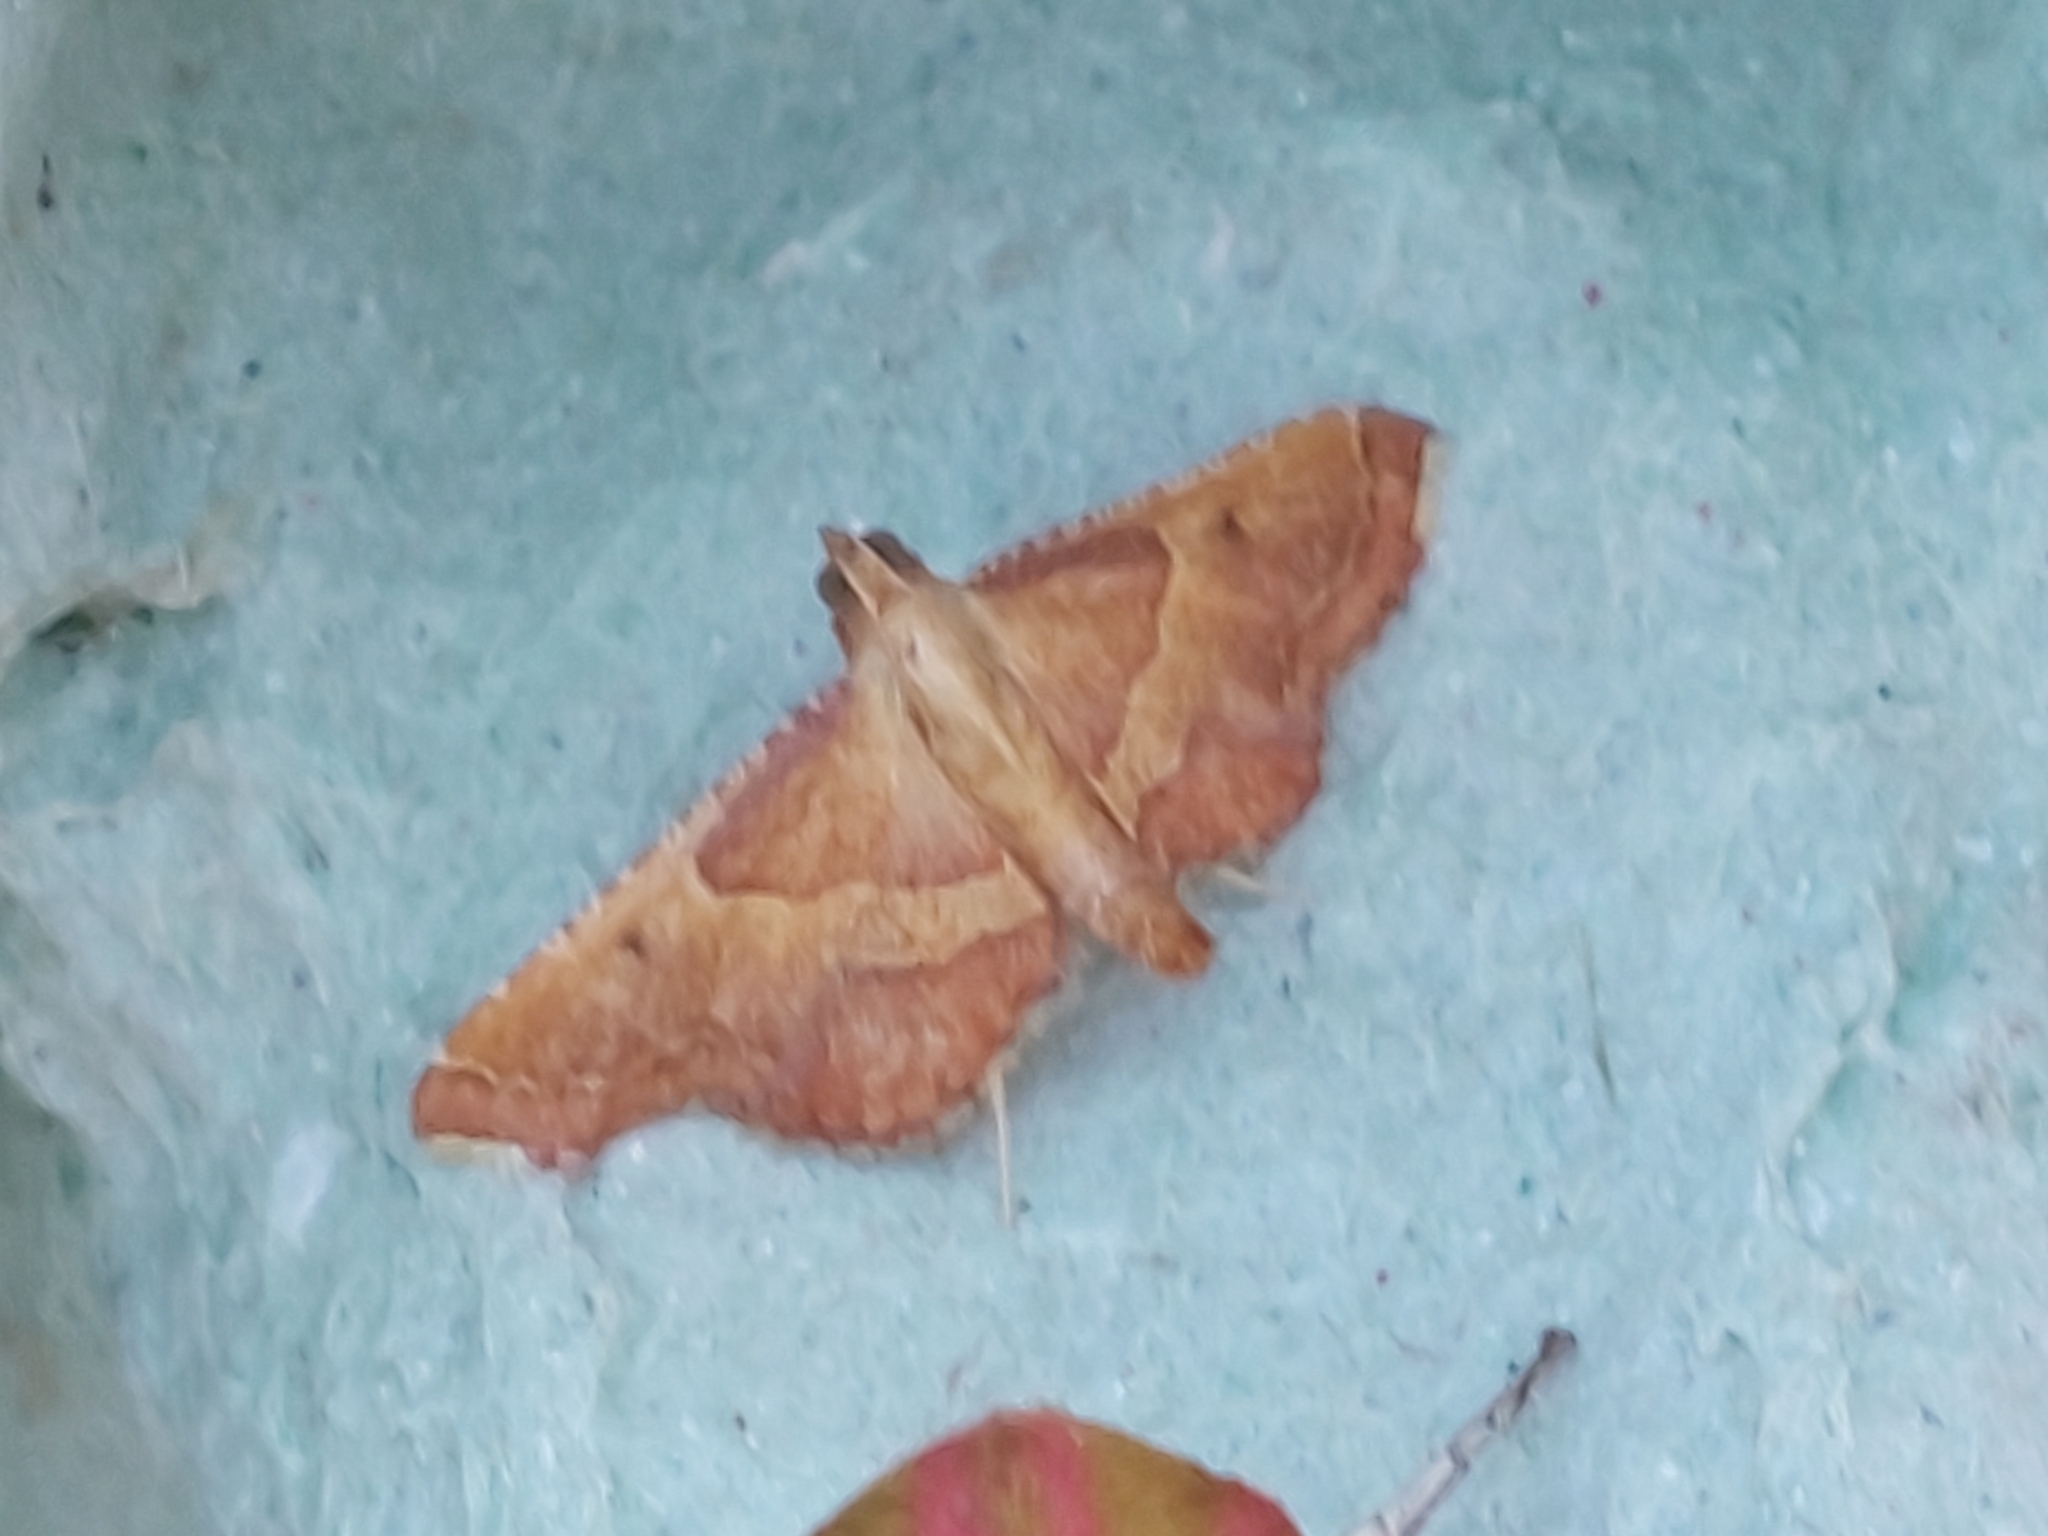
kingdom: Animalia
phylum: Arthropoda
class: Insecta
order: Lepidoptera
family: Pyralidae
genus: Endotricha
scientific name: Endotricha flammealis
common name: Rosy tabby
